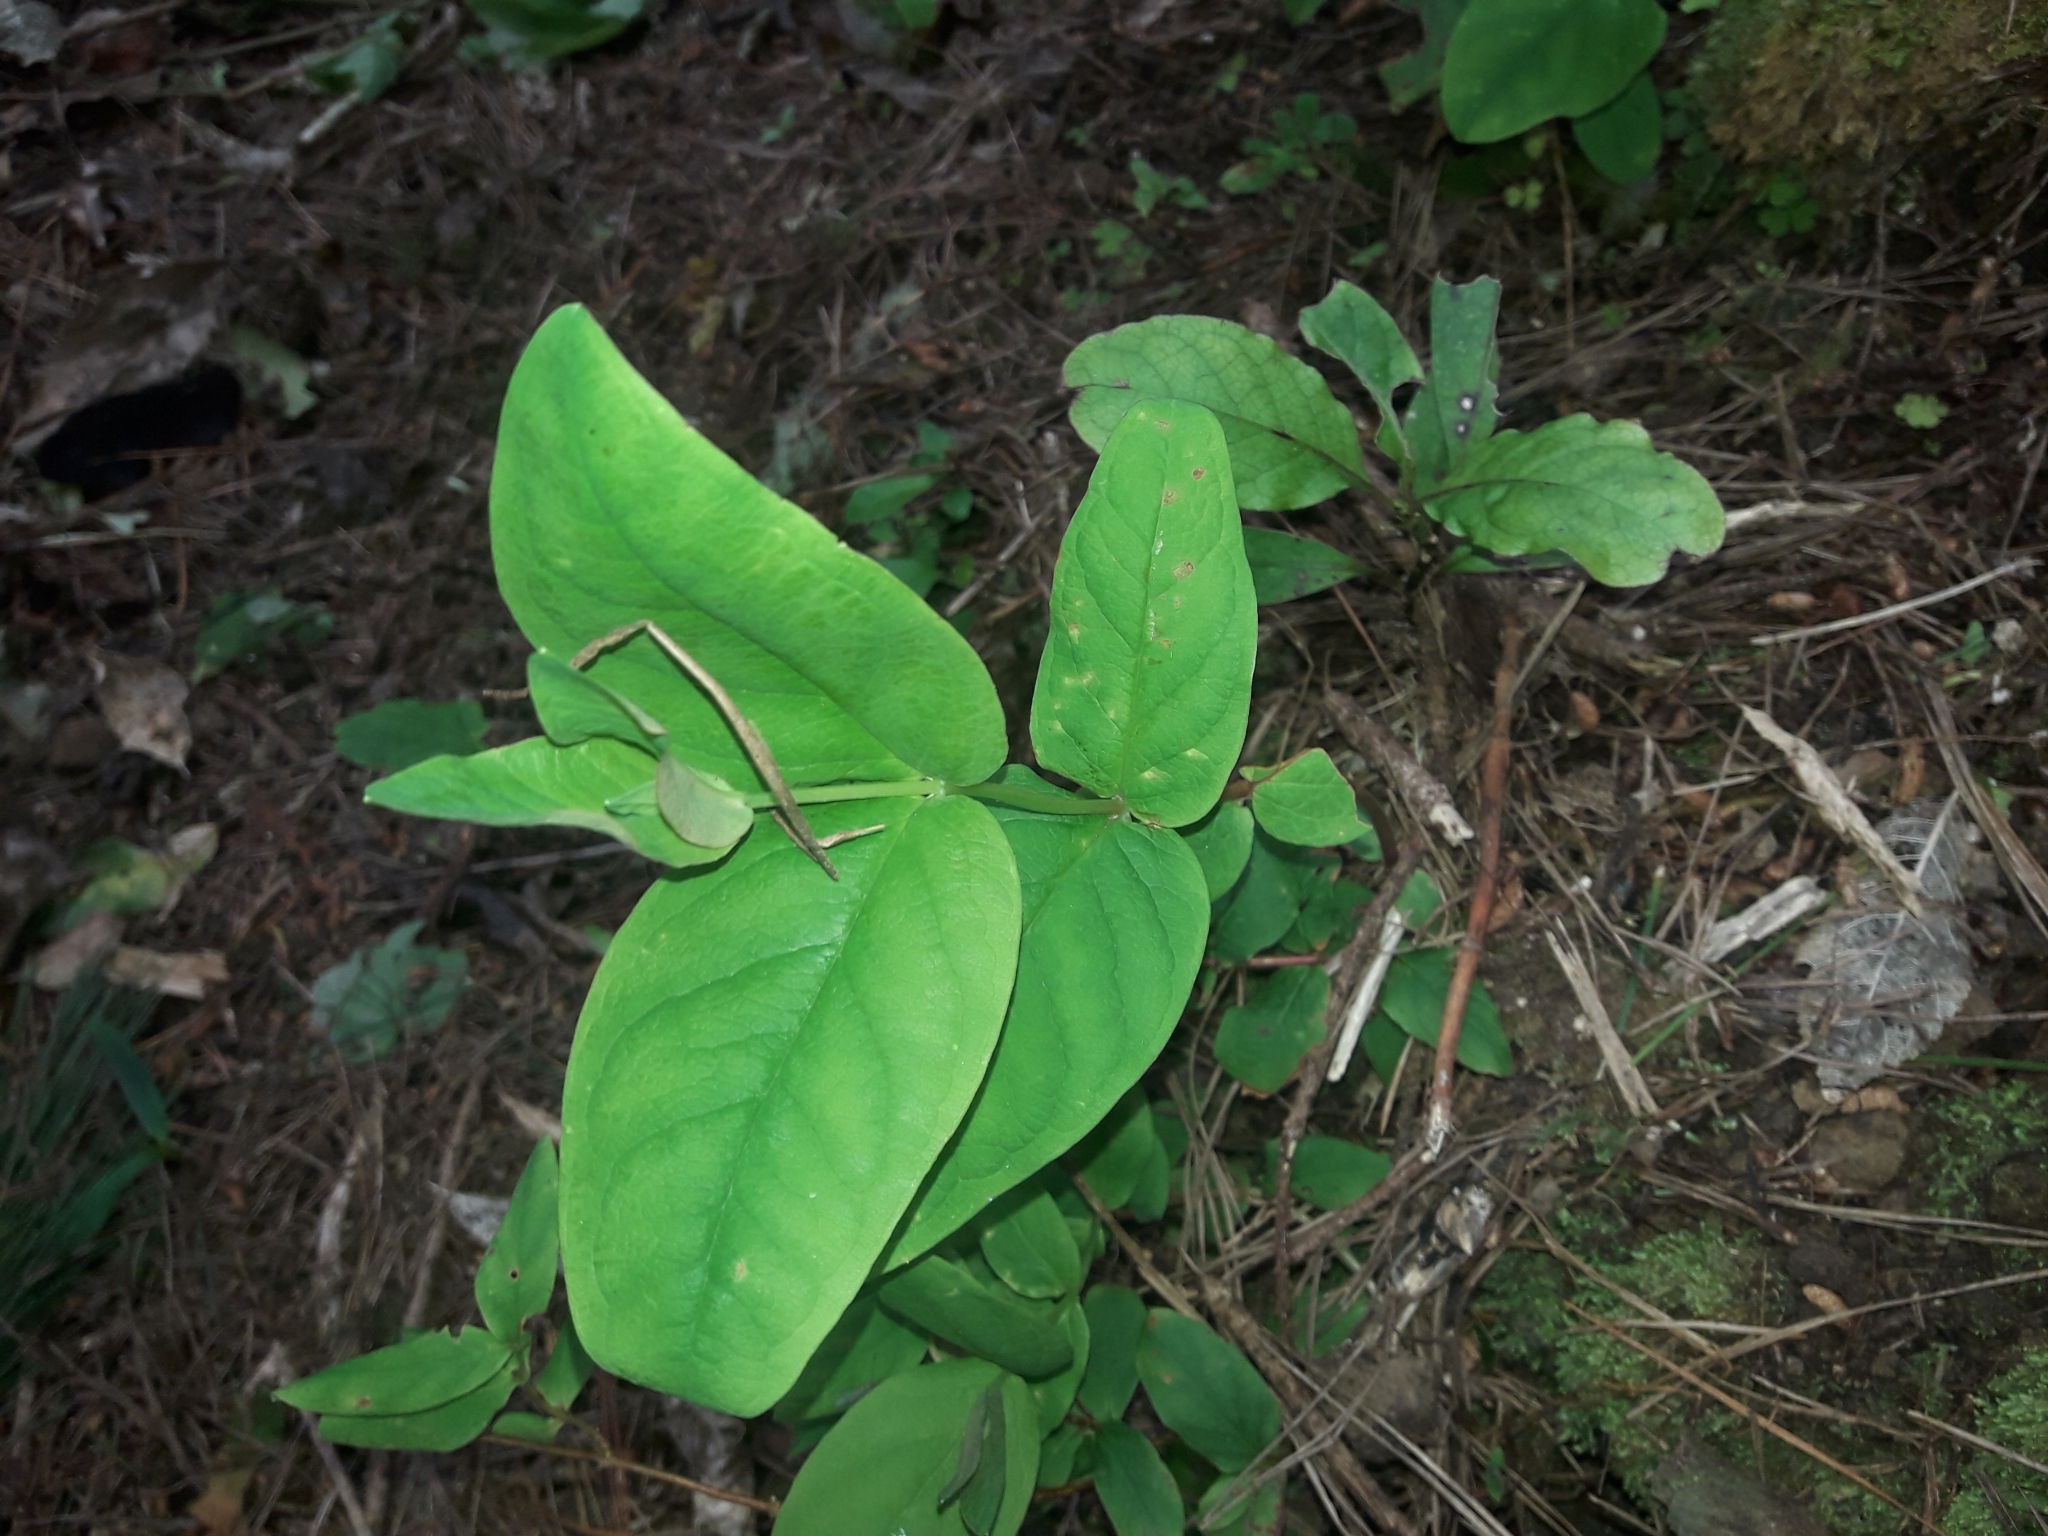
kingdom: Plantae
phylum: Tracheophyta
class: Magnoliopsida
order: Malpighiales
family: Hypericaceae
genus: Hypericum
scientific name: Hypericum androsaemum
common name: Sweet-amber
